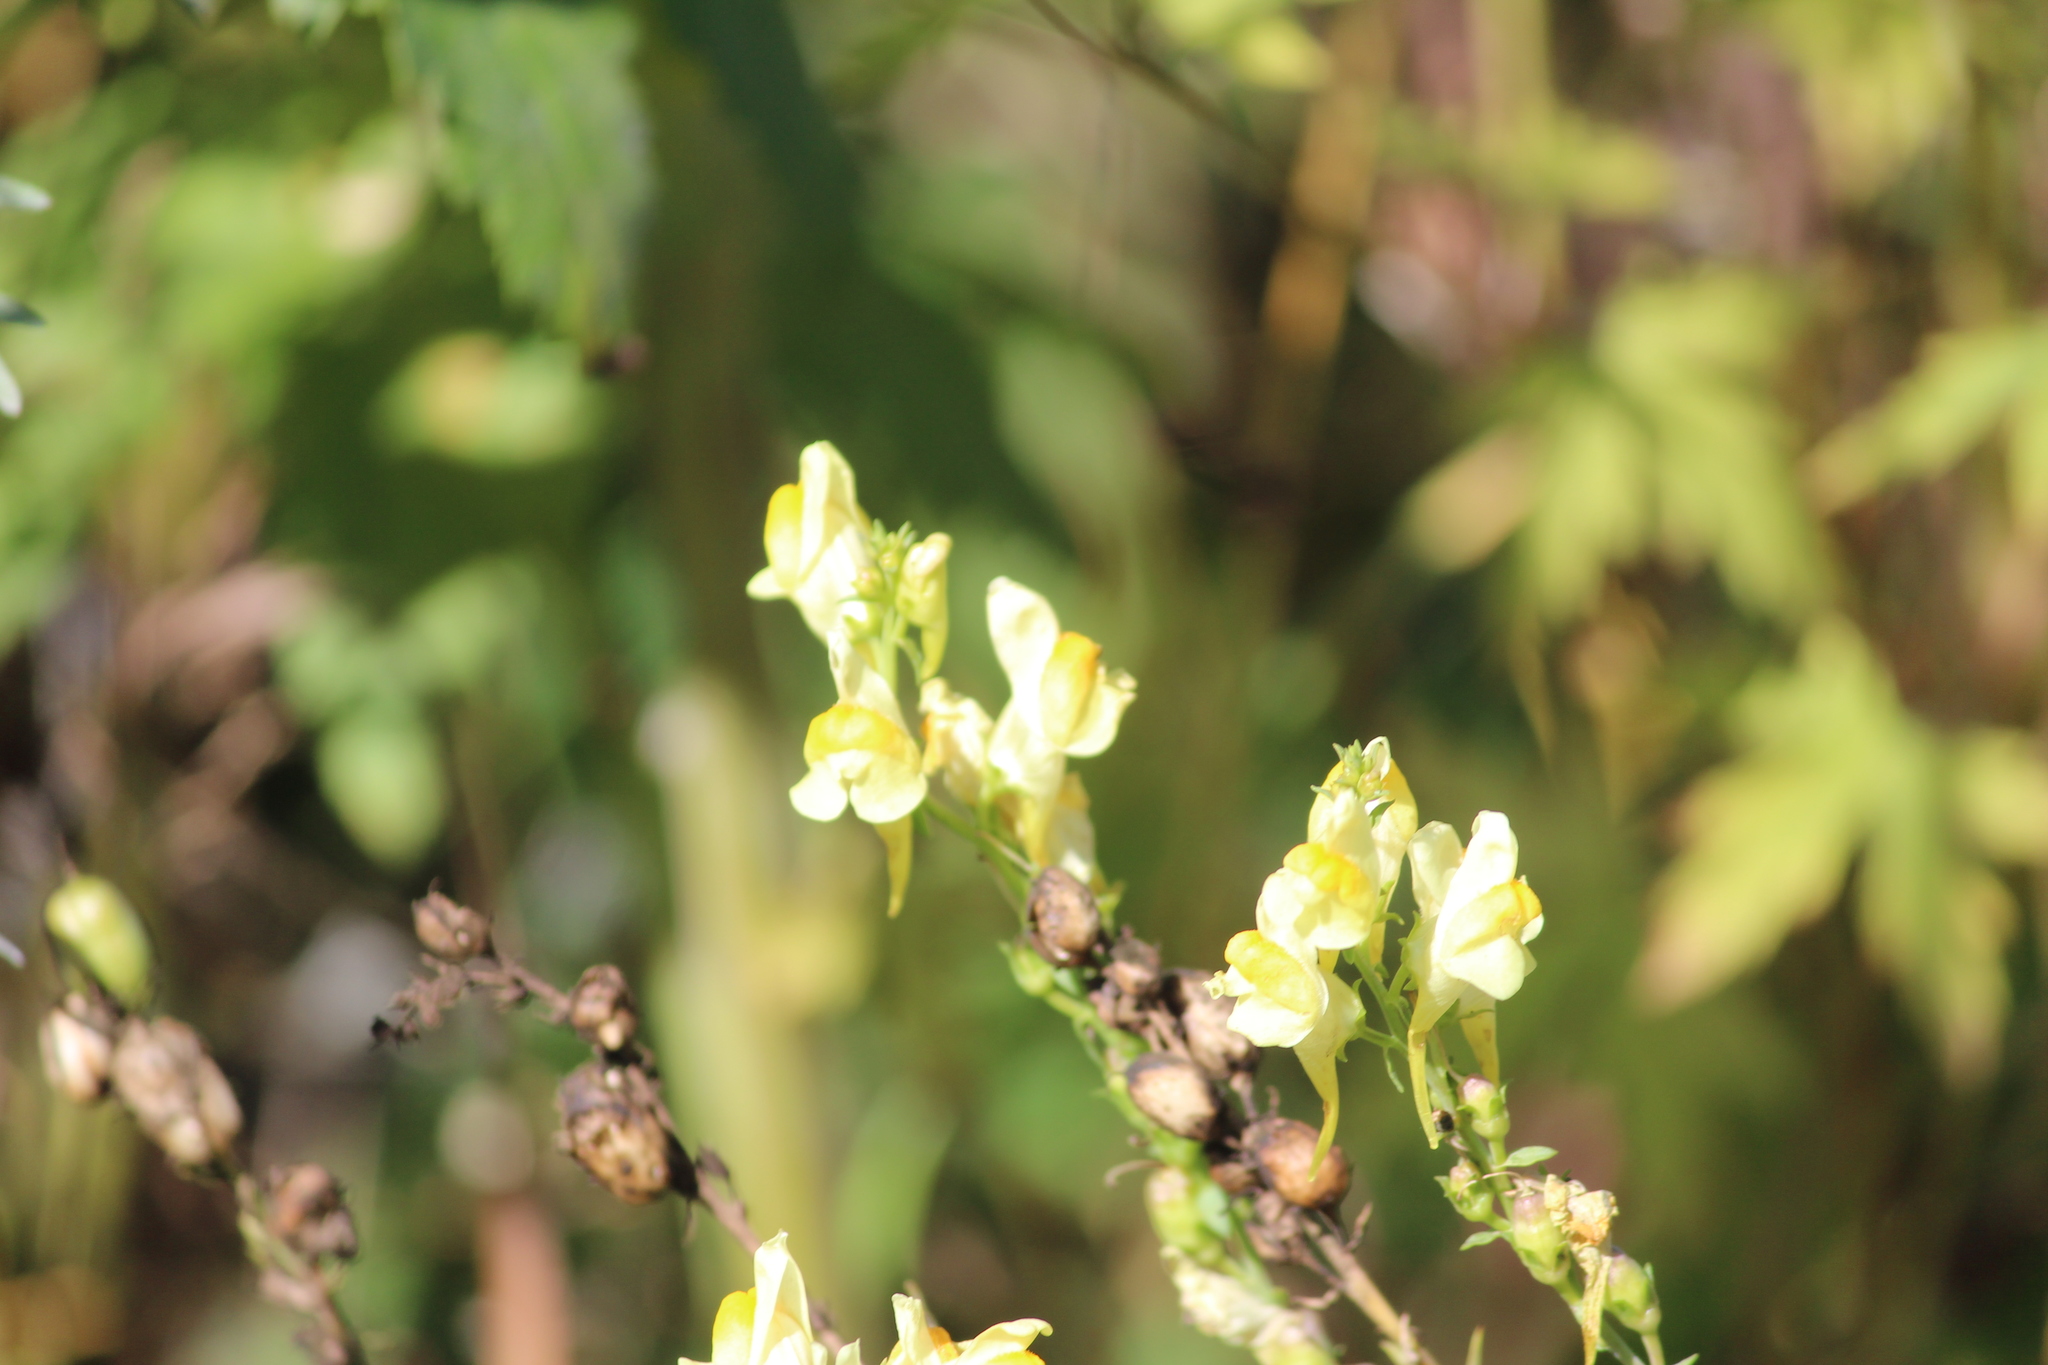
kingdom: Plantae
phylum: Tracheophyta
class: Magnoliopsida
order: Lamiales
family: Plantaginaceae
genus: Linaria
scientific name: Linaria vulgaris
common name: Butter and eggs
